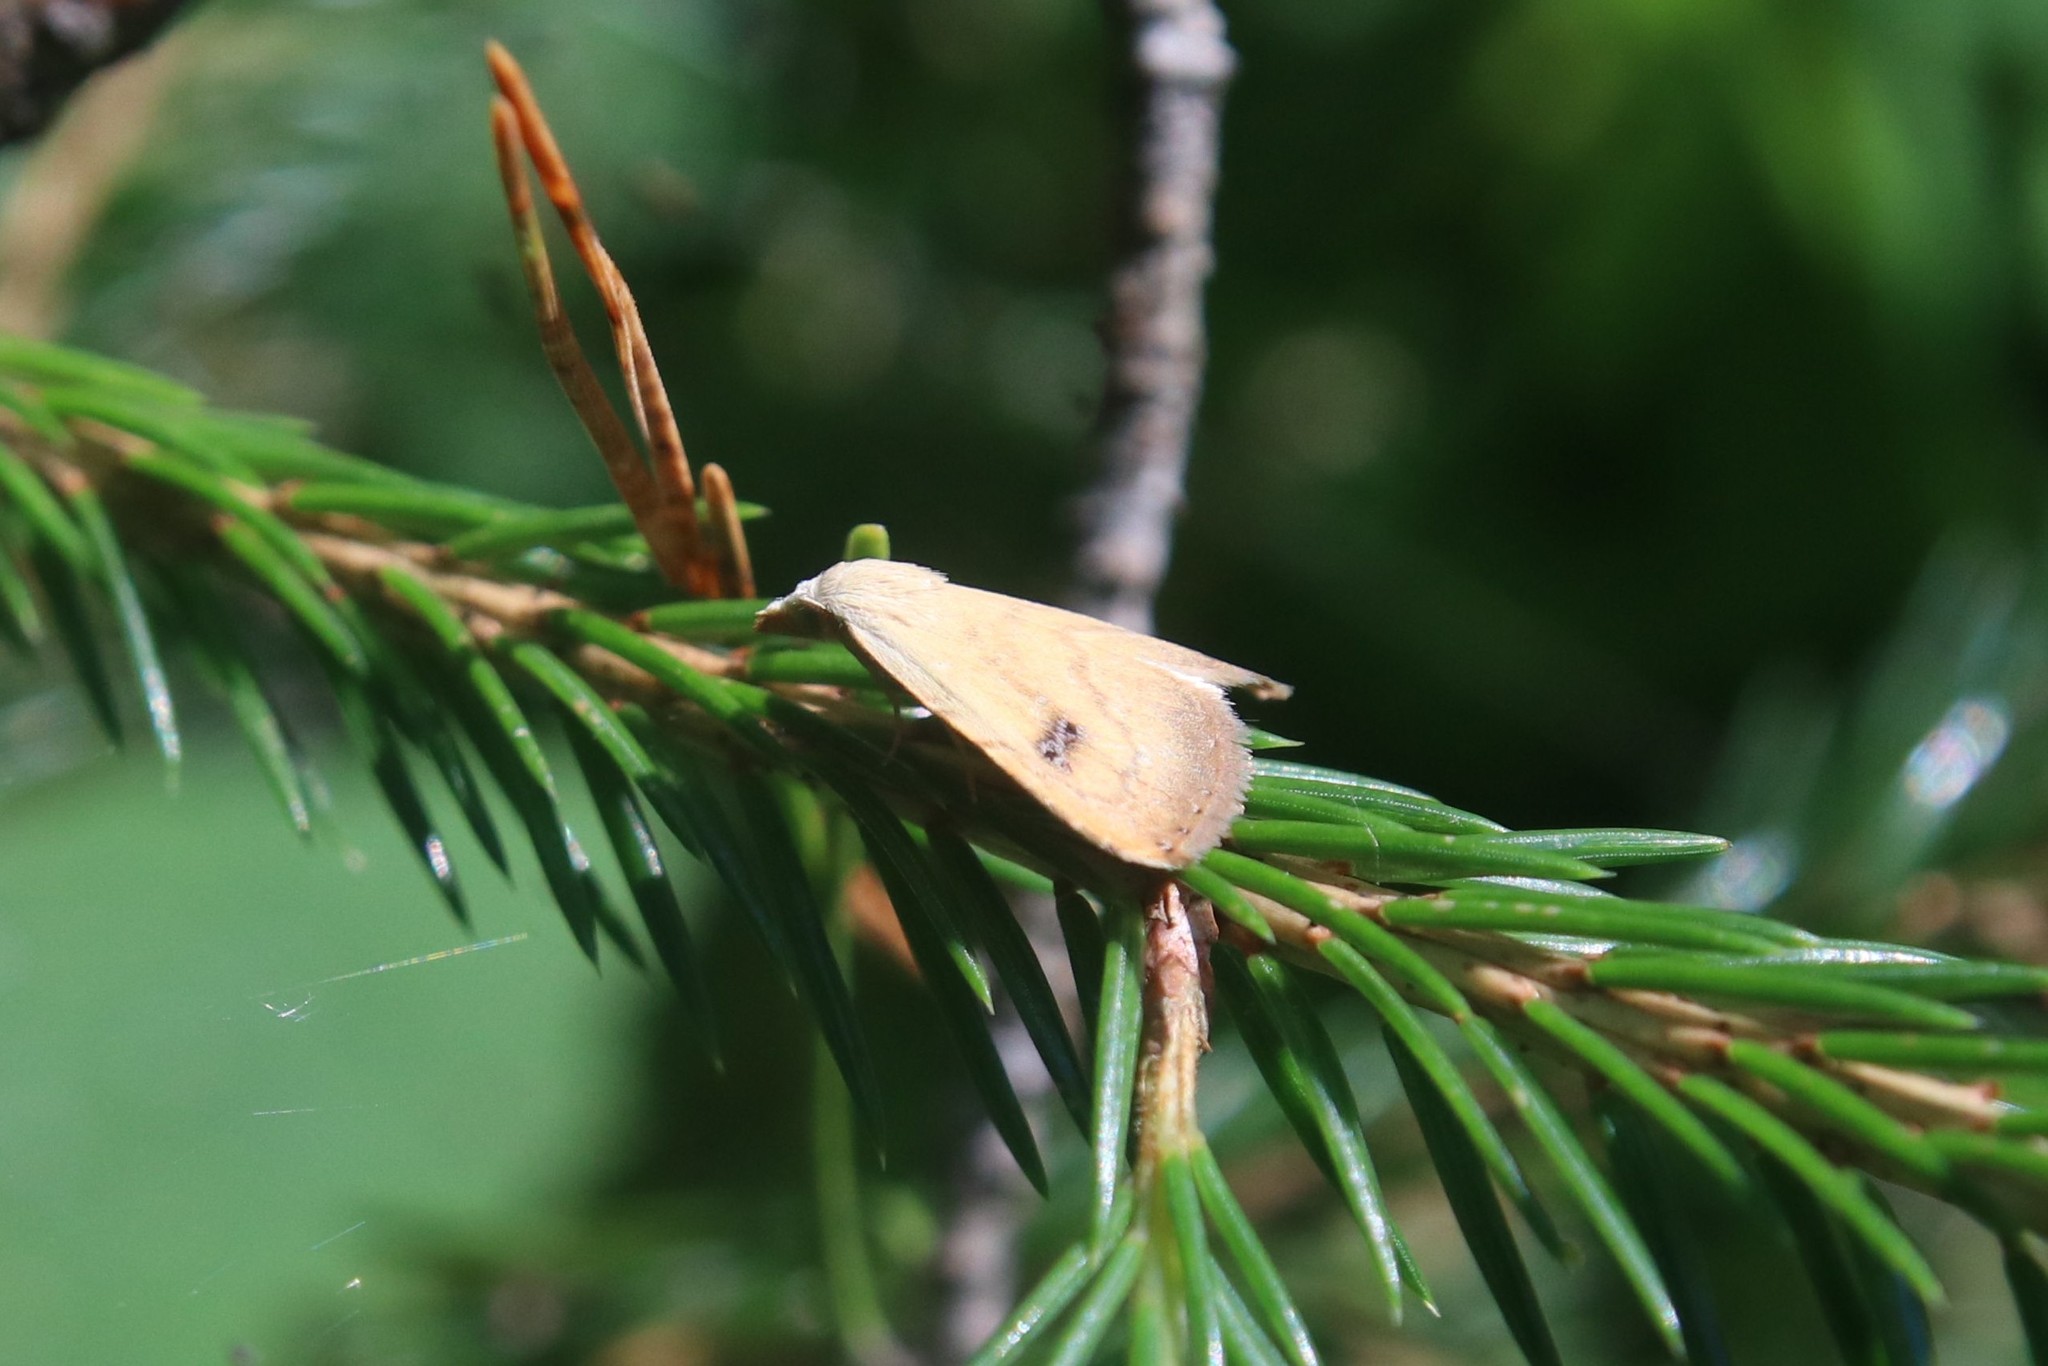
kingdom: Animalia
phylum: Arthropoda
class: Insecta
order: Lepidoptera
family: Erebidae
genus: Rivula
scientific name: Rivula sericealis
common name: Straw dot
